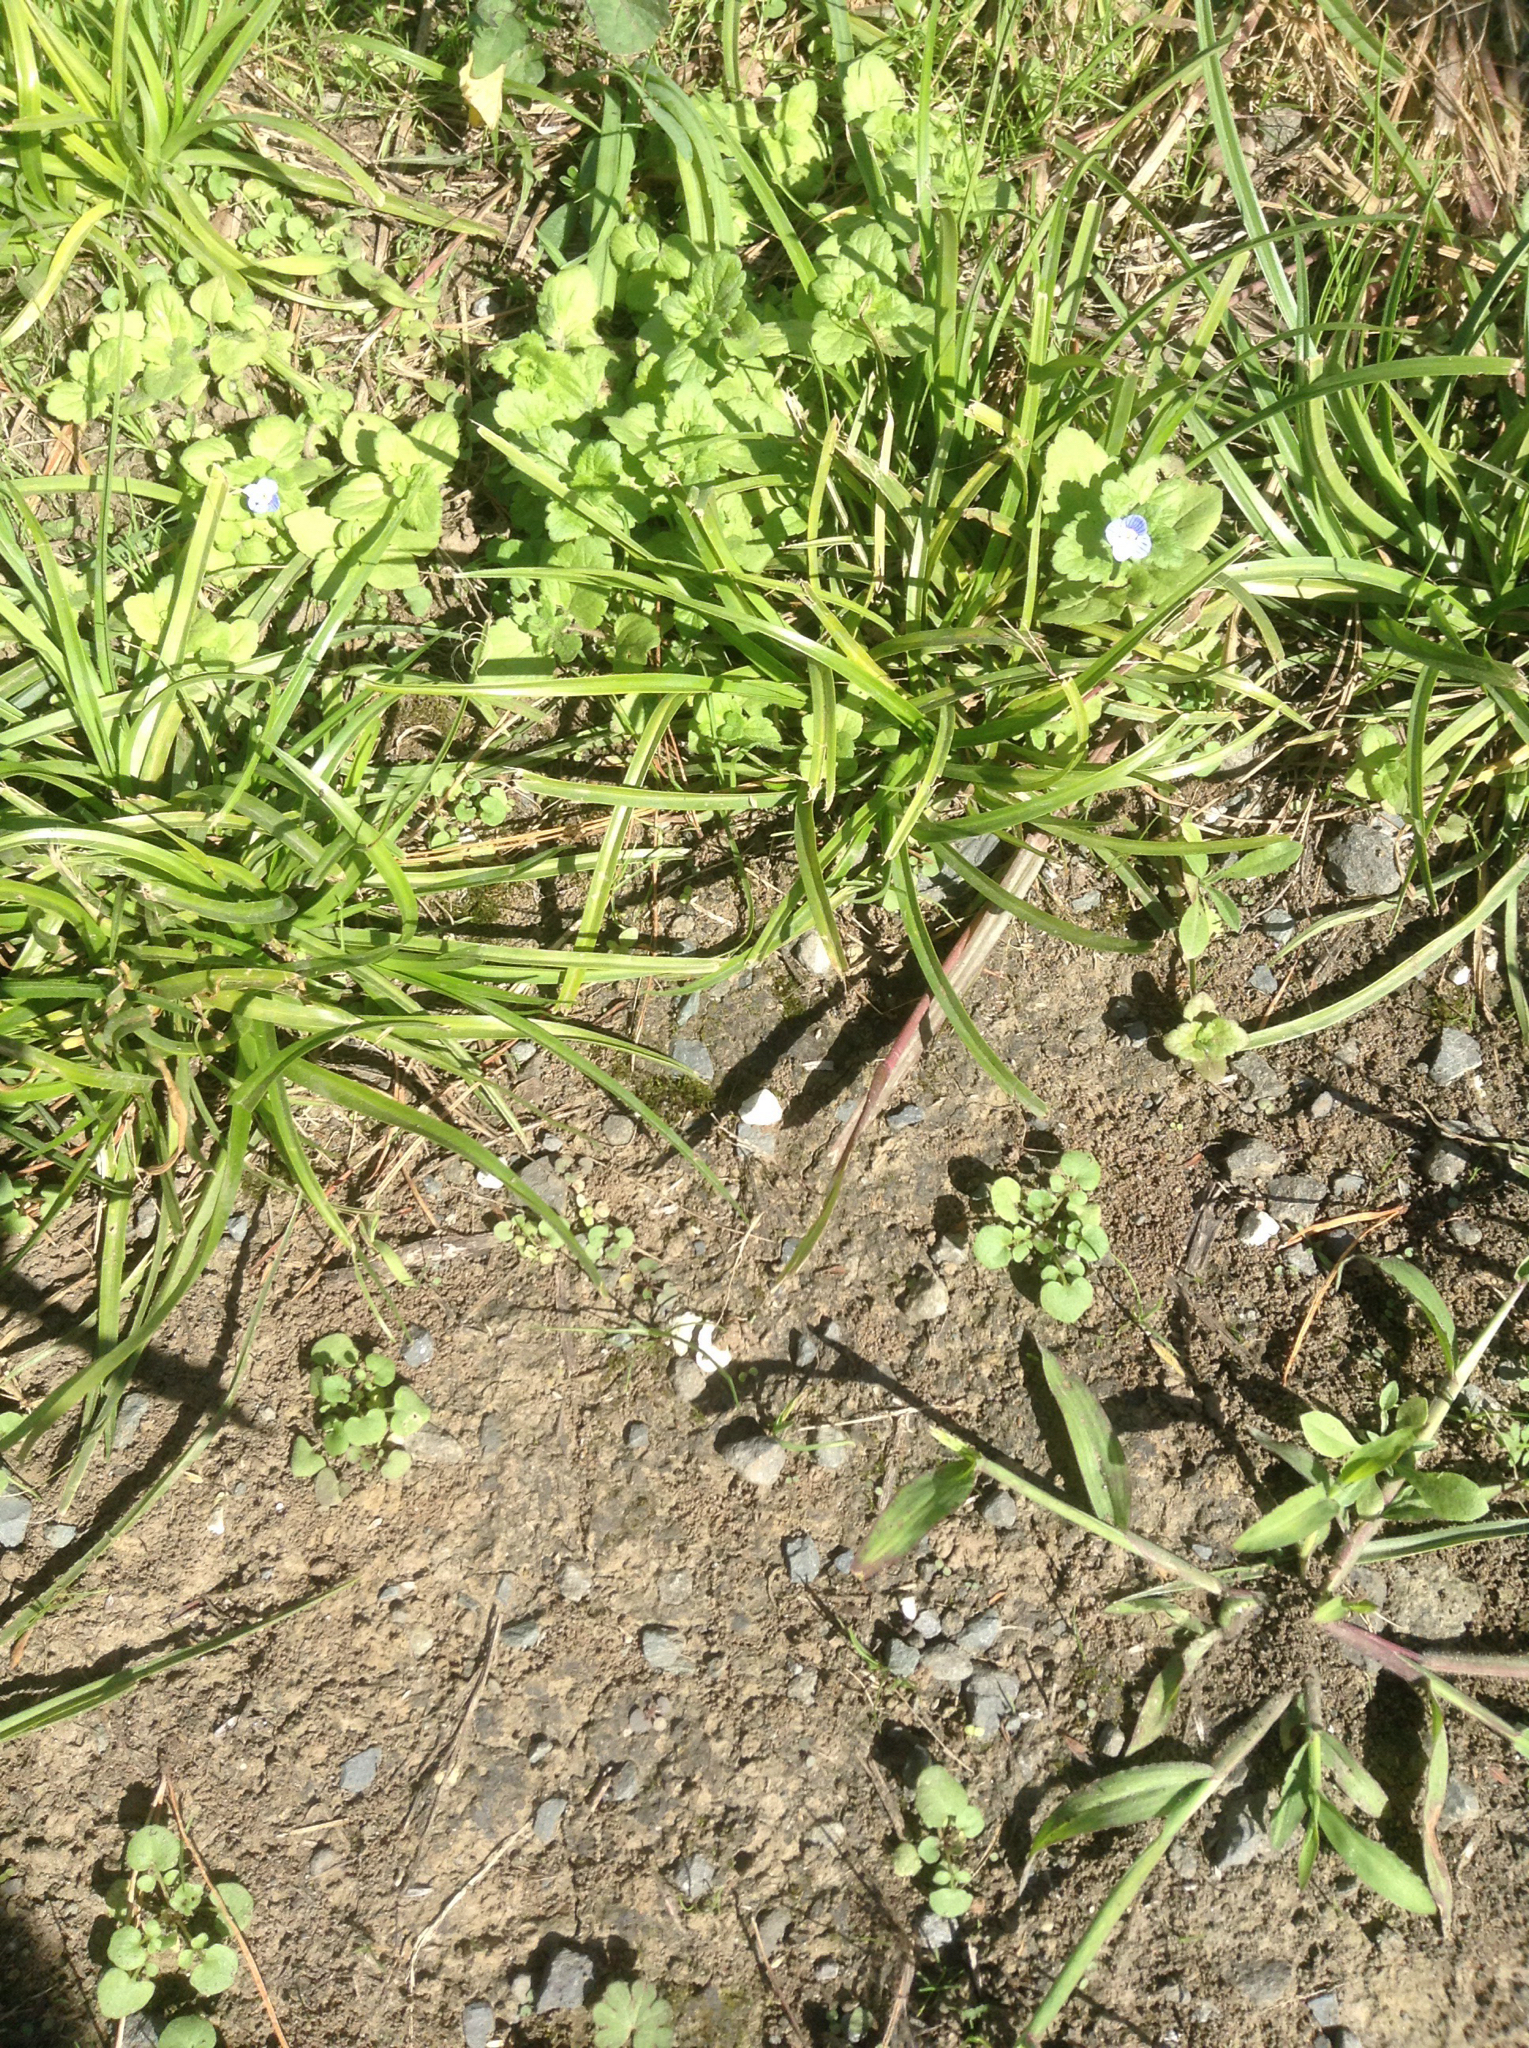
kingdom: Plantae
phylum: Tracheophyta
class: Magnoliopsida
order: Lamiales
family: Plantaginaceae
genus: Veronica
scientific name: Veronica persica
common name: Common field-speedwell
